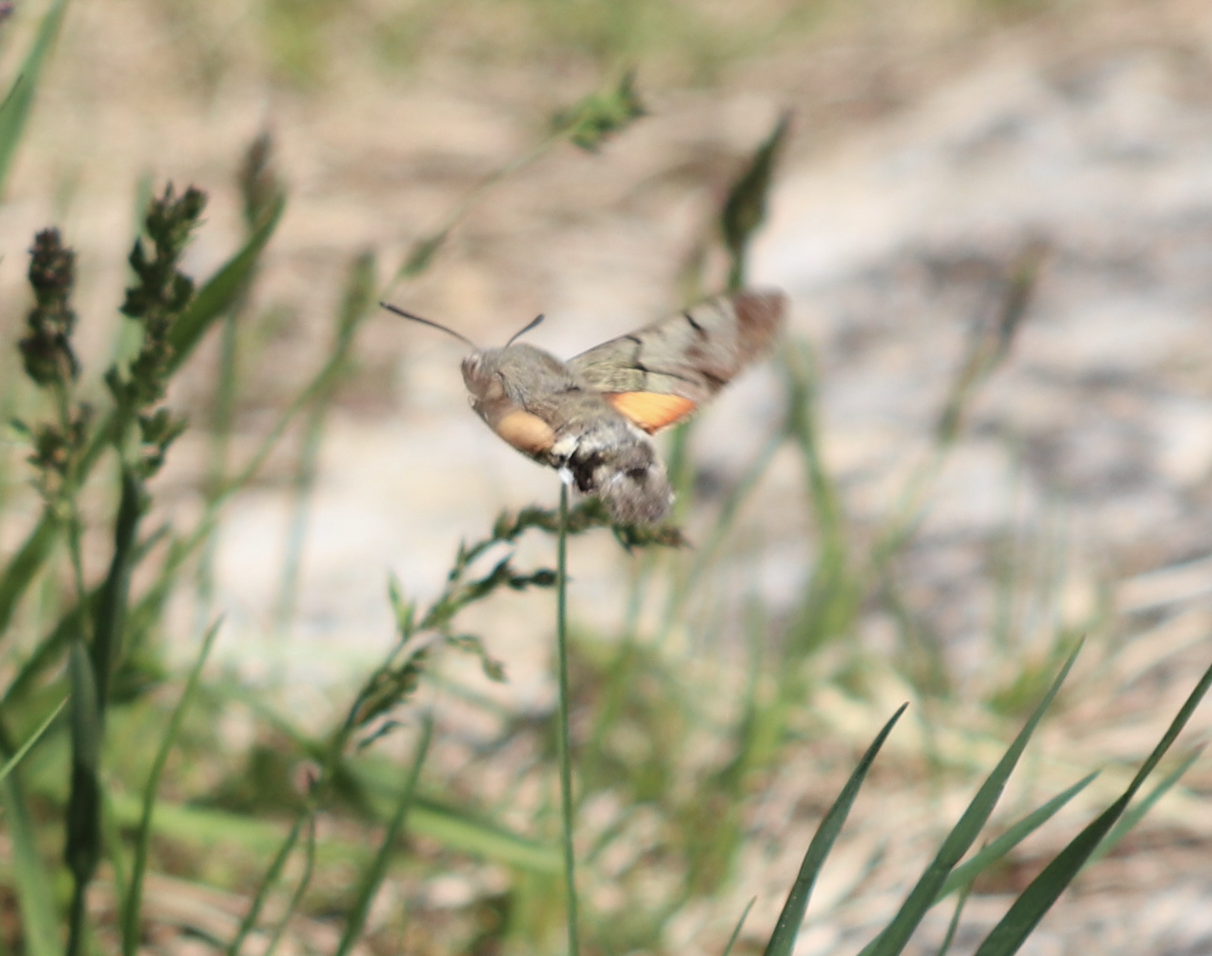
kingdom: Animalia
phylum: Arthropoda
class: Insecta
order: Lepidoptera
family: Sphingidae
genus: Macroglossum
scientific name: Macroglossum stellatarum
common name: Humming-bird hawk-moth
